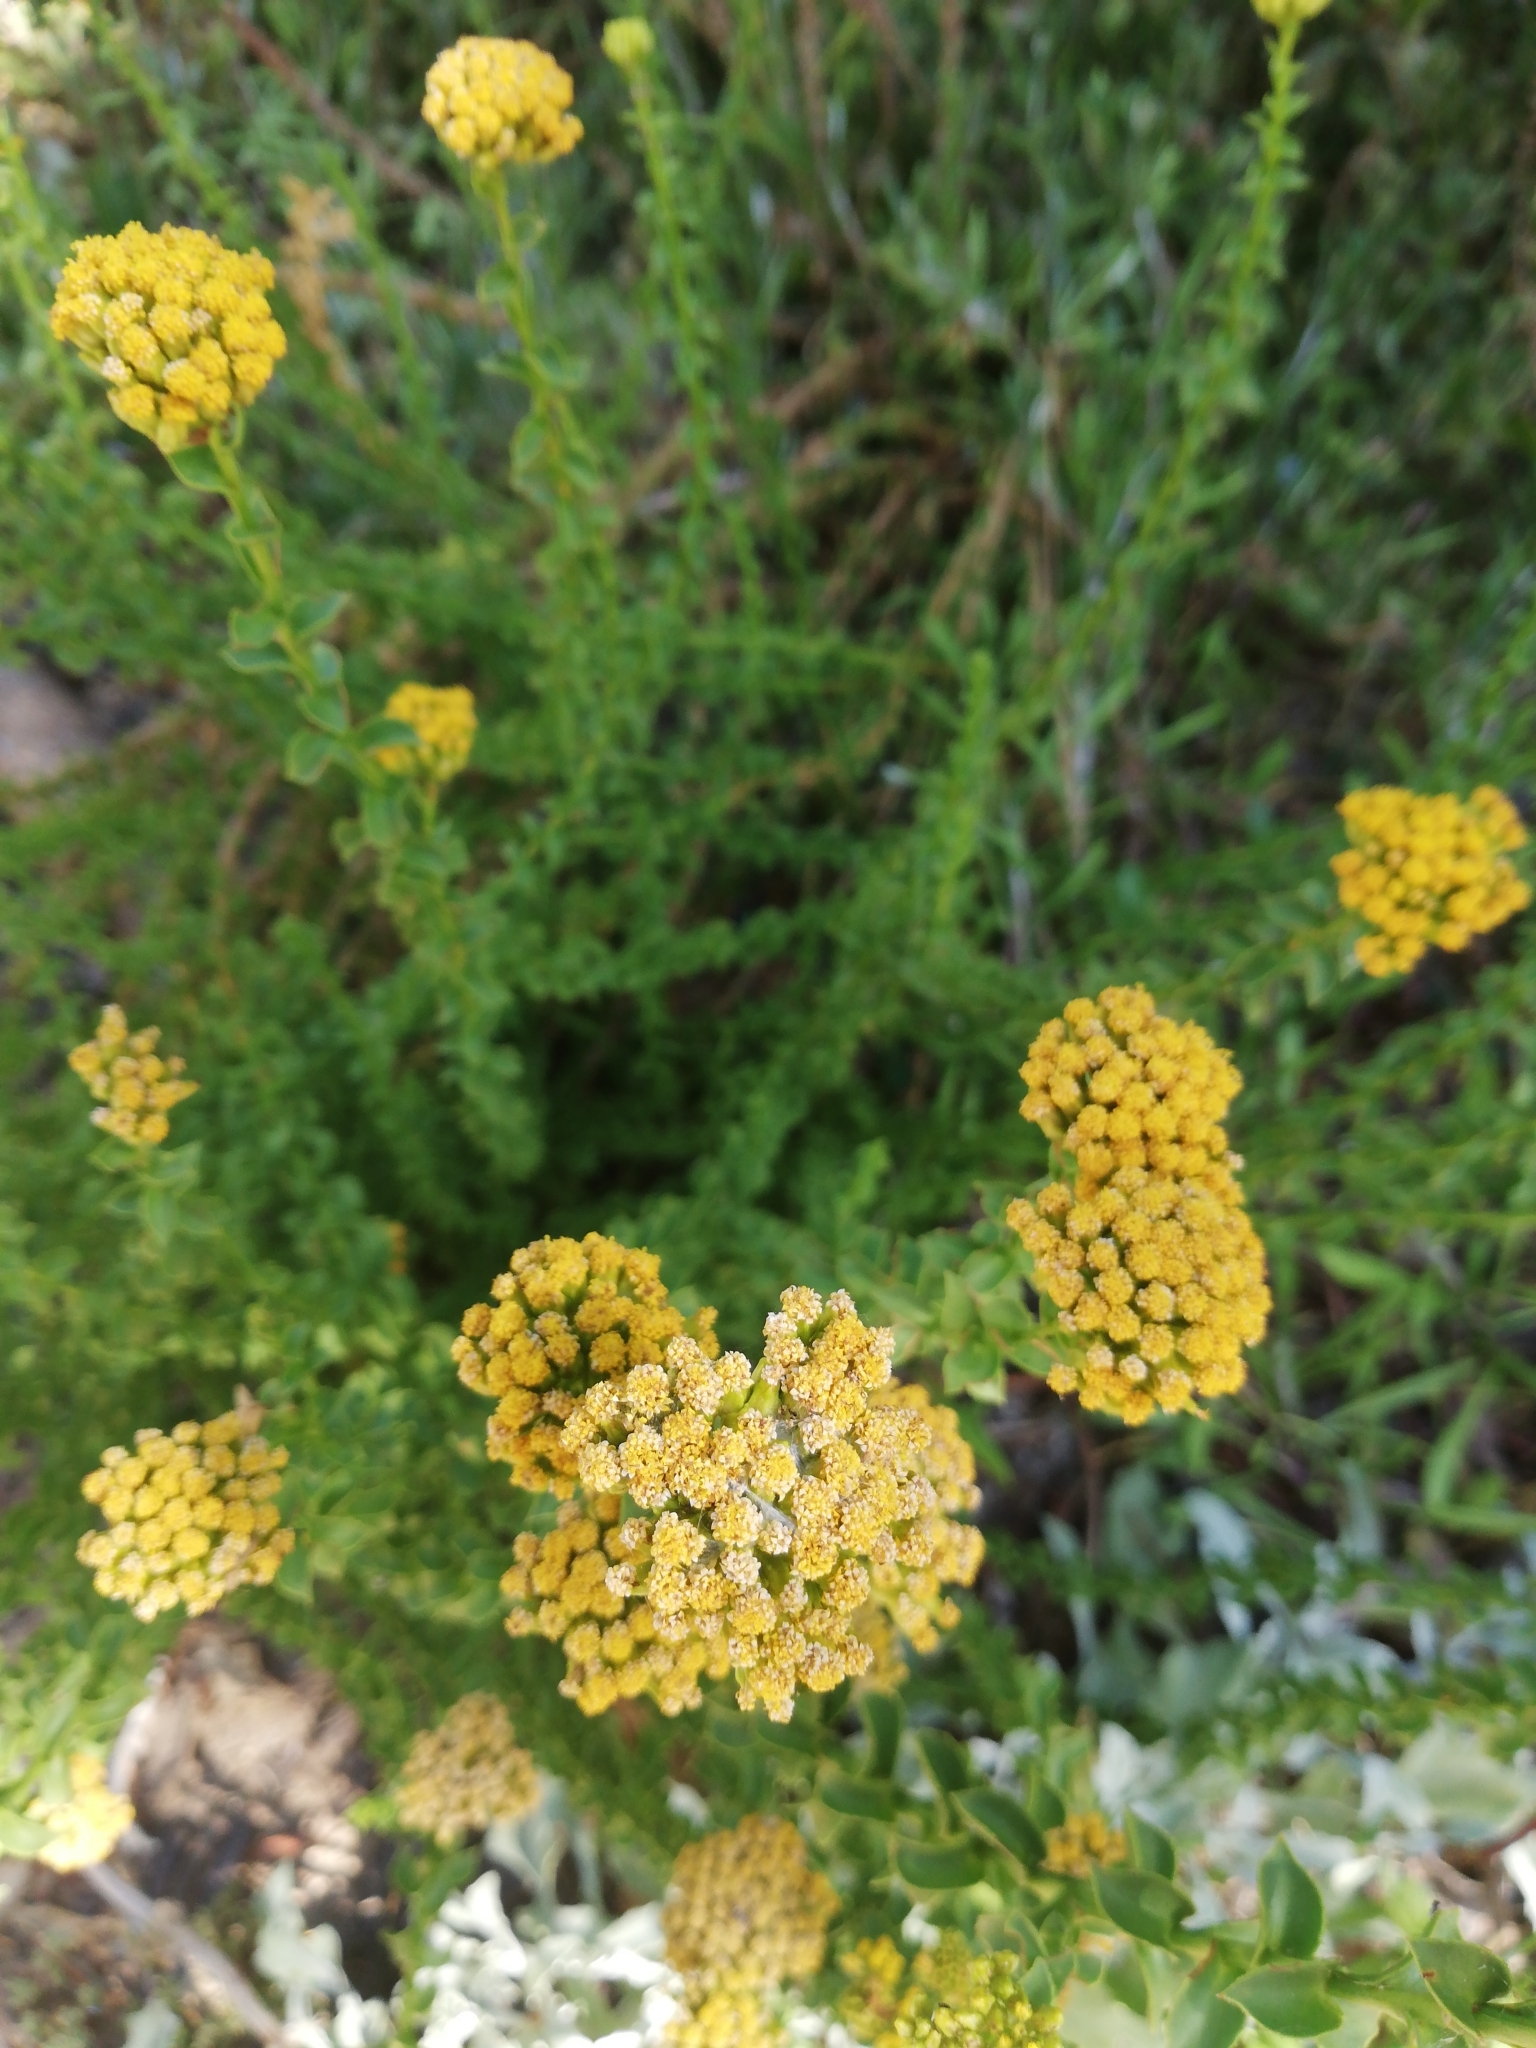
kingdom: Plantae
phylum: Tracheophyta
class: Magnoliopsida
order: Asterales
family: Asteraceae
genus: Athanasia
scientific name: Athanasia dentata
